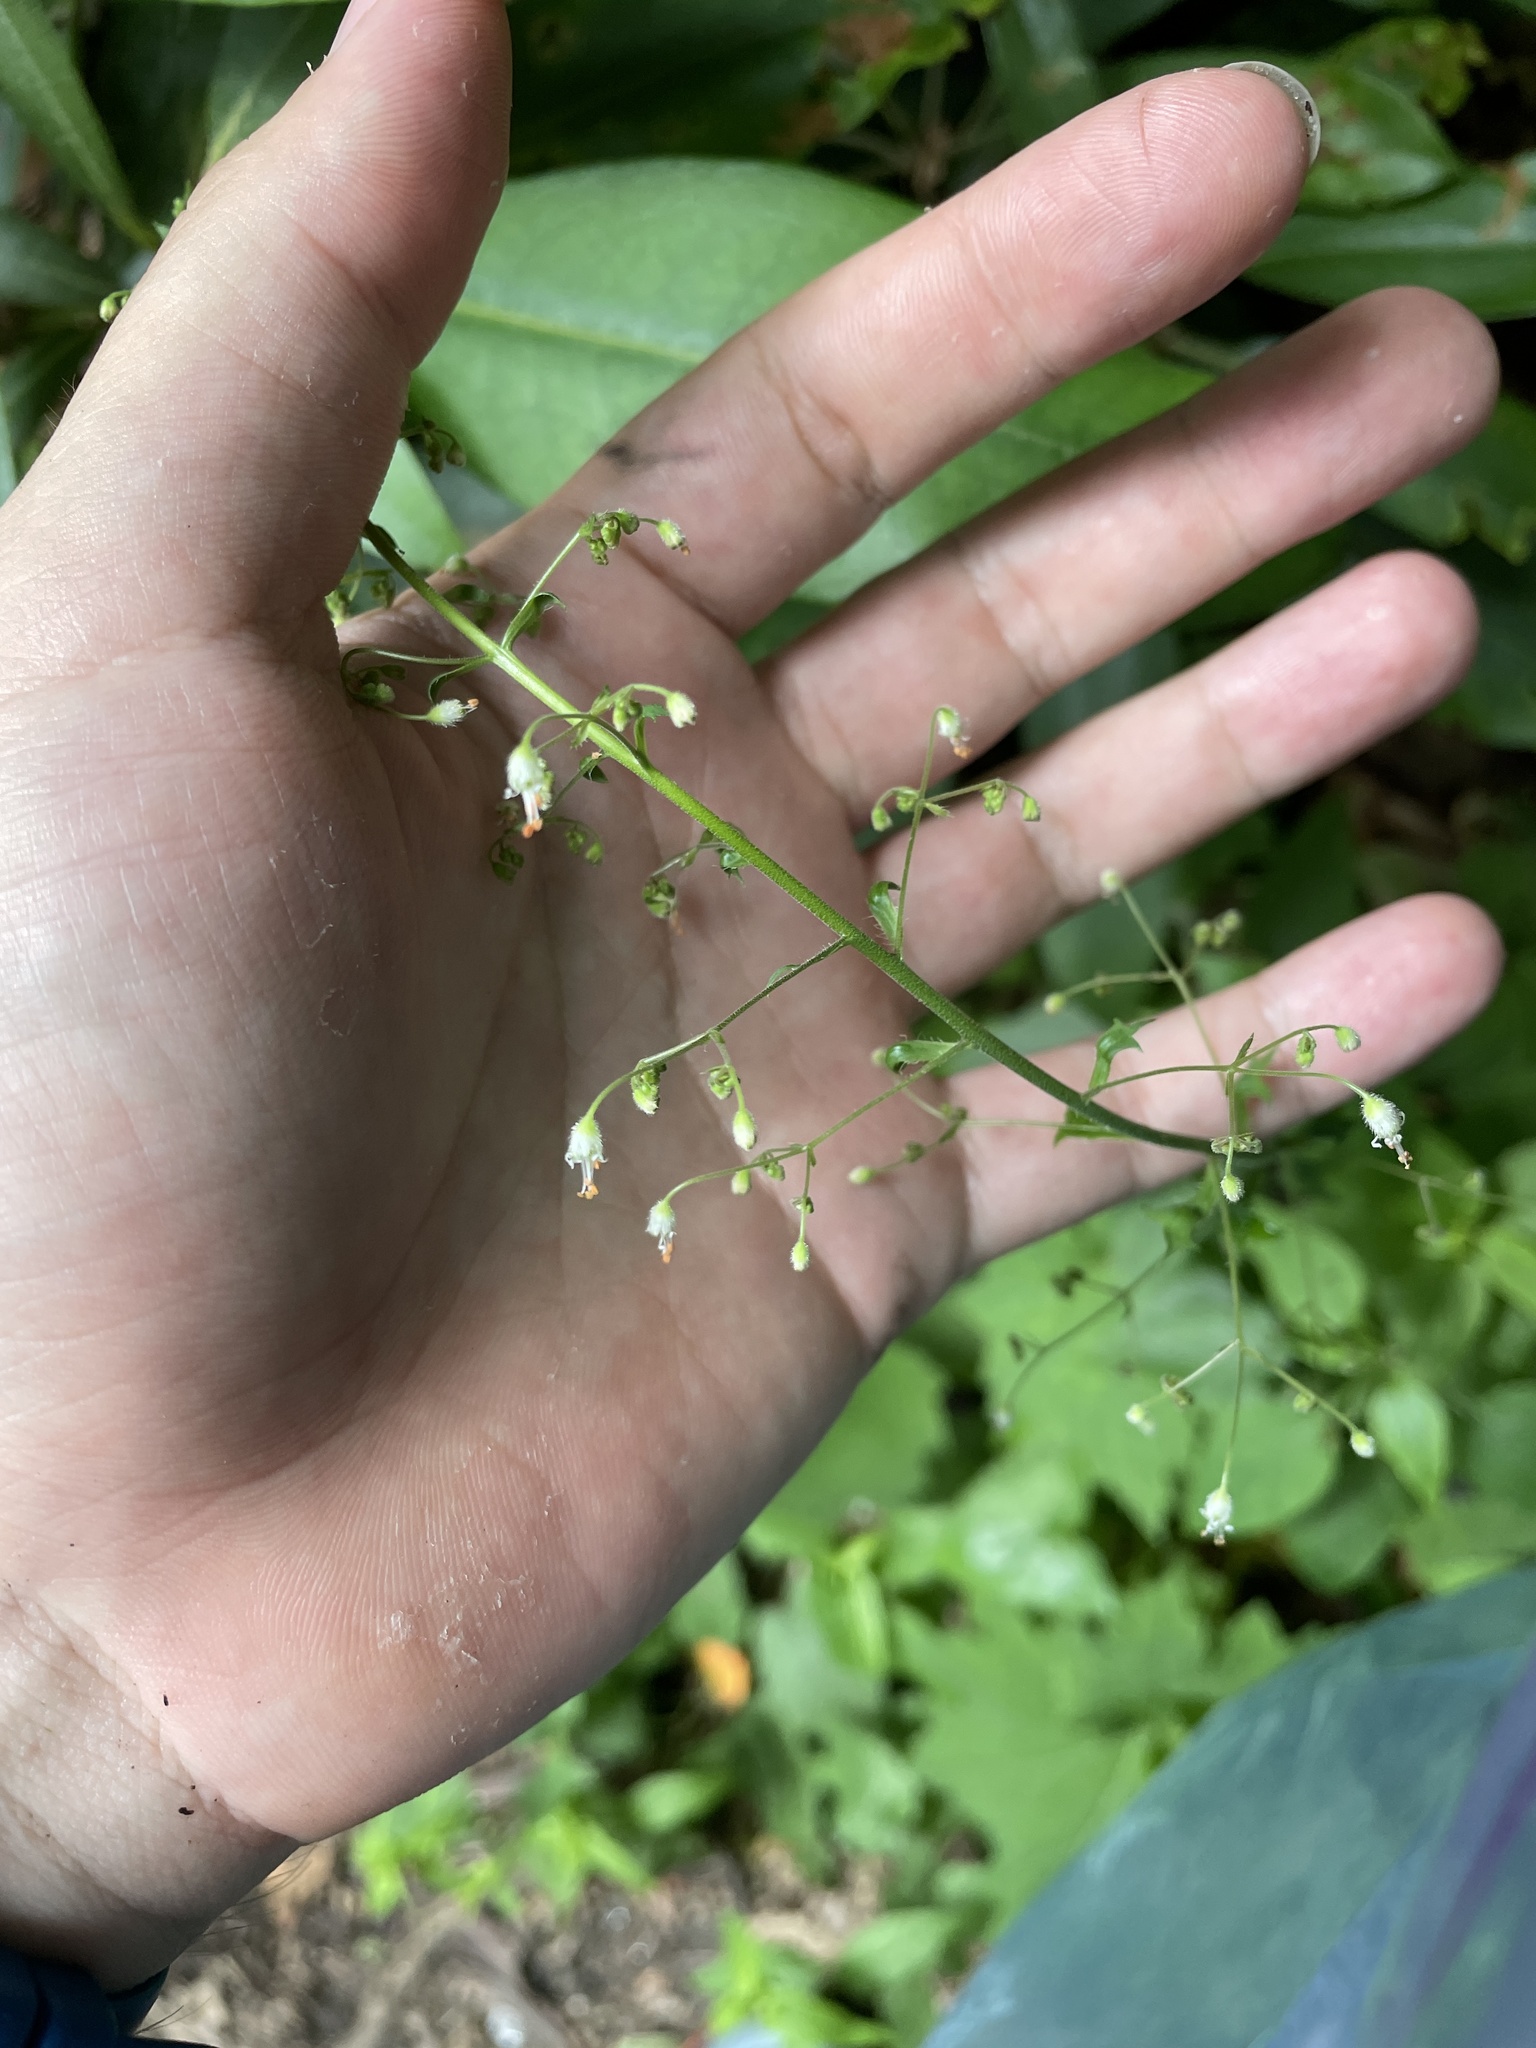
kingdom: Plantae
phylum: Tracheophyta
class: Magnoliopsida
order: Saxifragales
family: Saxifragaceae
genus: Heuchera
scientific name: Heuchera villosa
